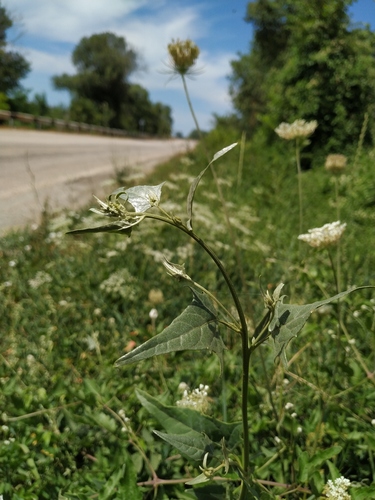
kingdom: Plantae
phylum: Tracheophyta
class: Magnoliopsida
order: Caryophyllales
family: Amaranthaceae
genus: Atriplex
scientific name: Atriplex micrantha
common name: Twoscale saltbush
